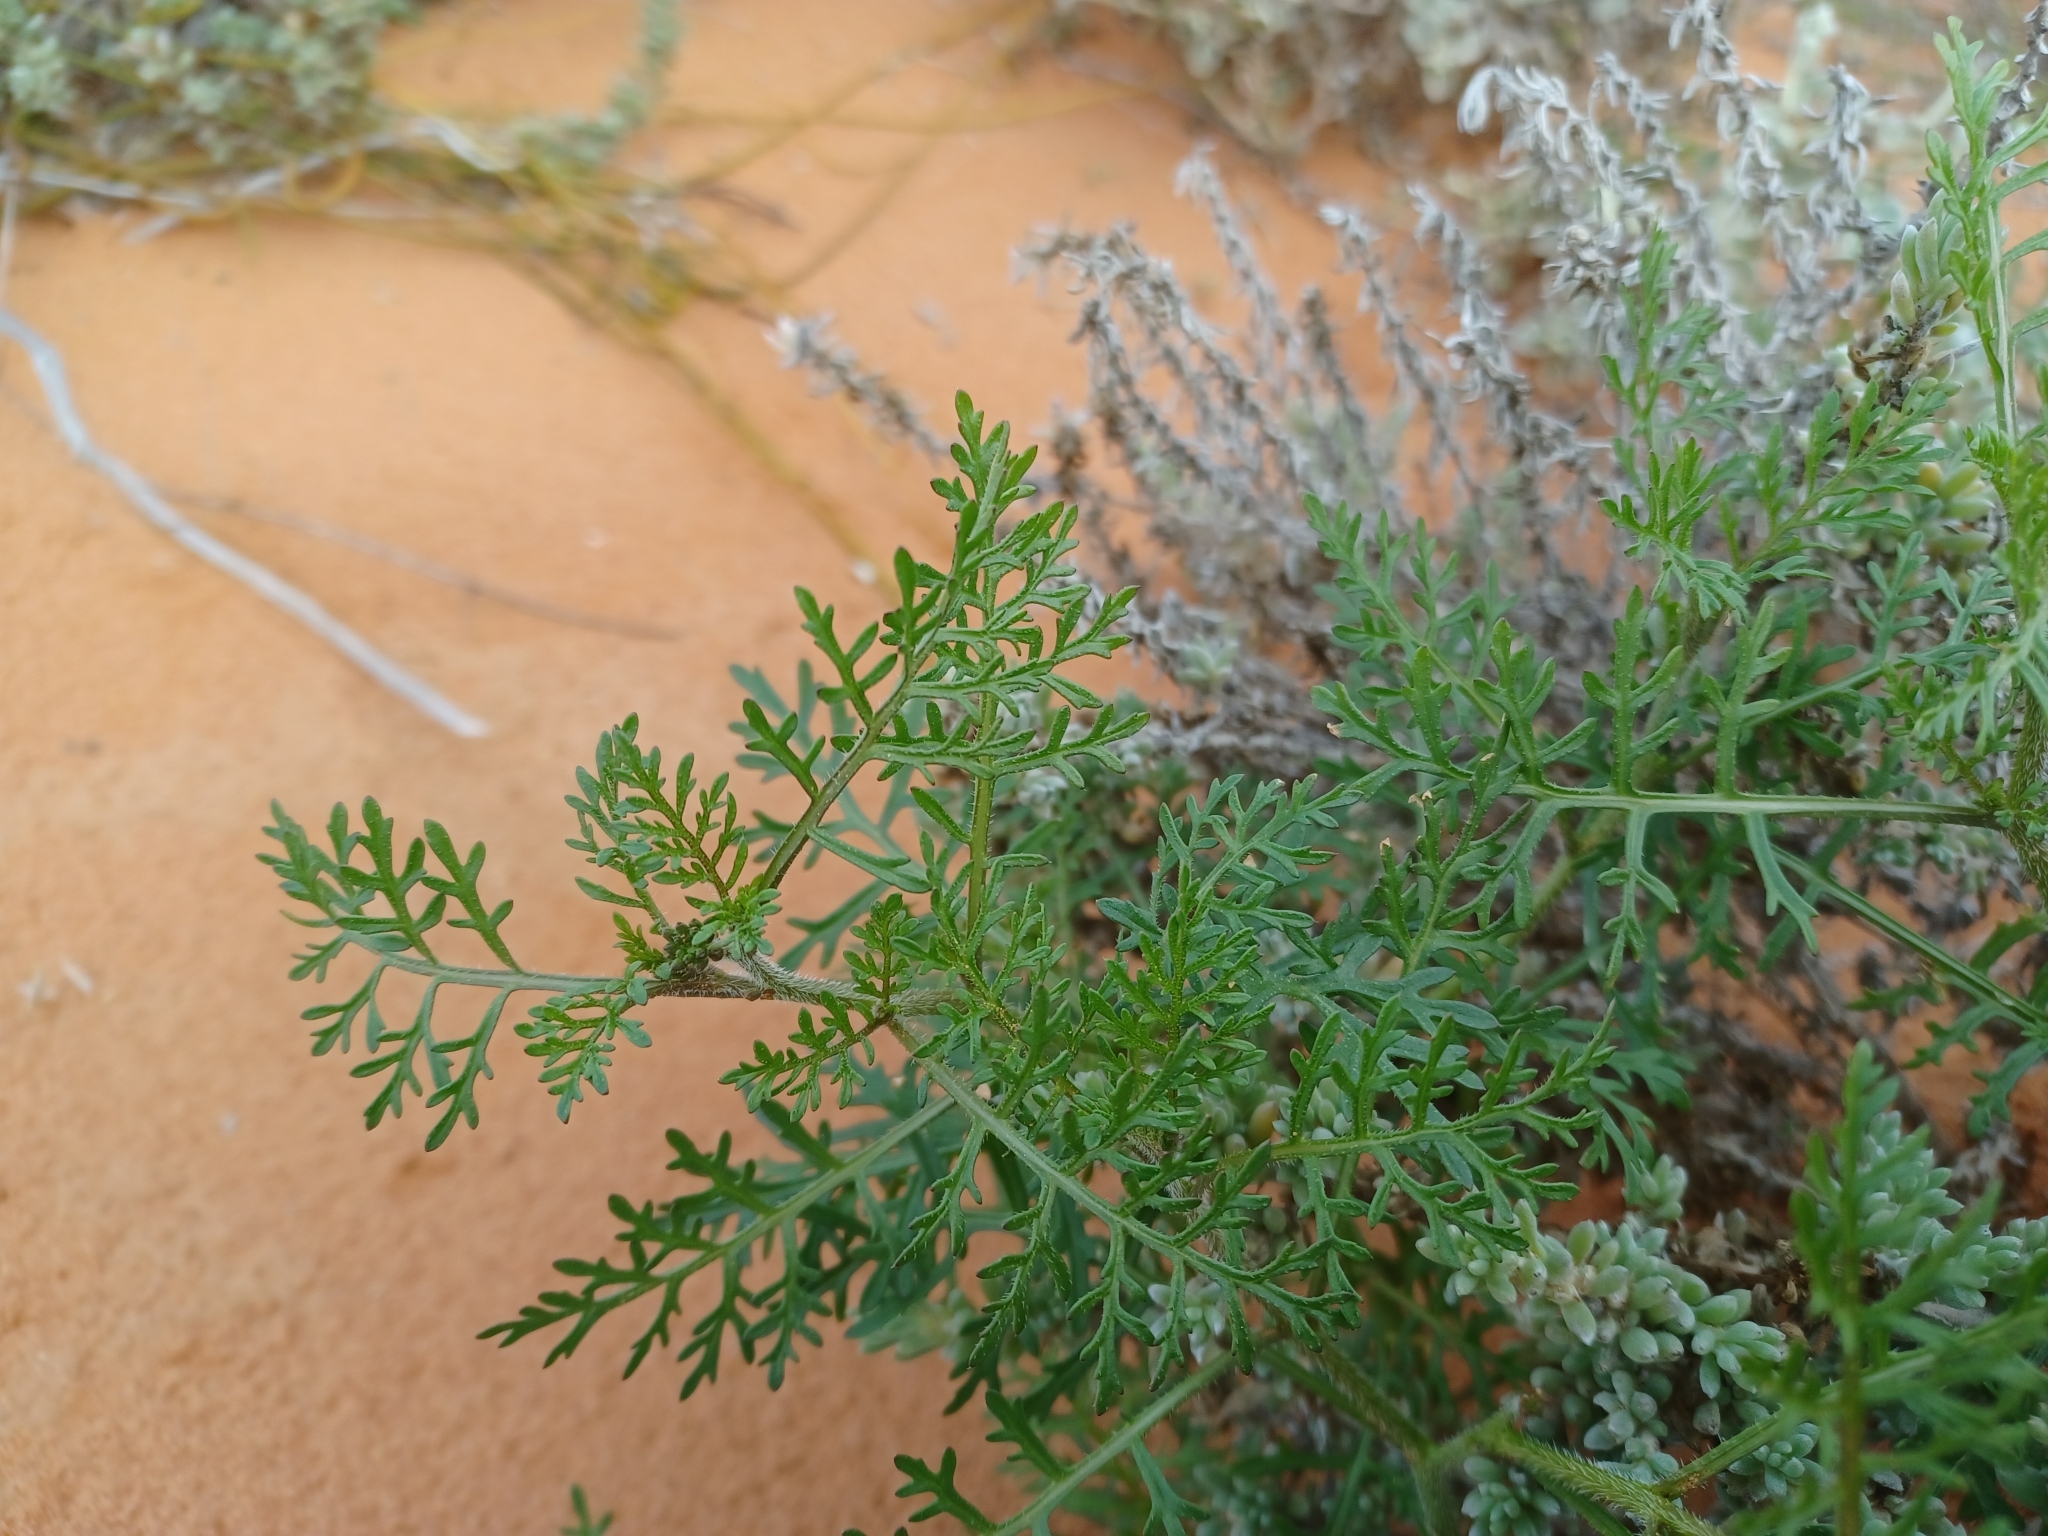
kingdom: Plantae
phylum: Tracheophyta
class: Magnoliopsida
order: Brassicales
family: Brassicaceae
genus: Carrichtera
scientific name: Carrichtera annua
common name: Cress rocket
